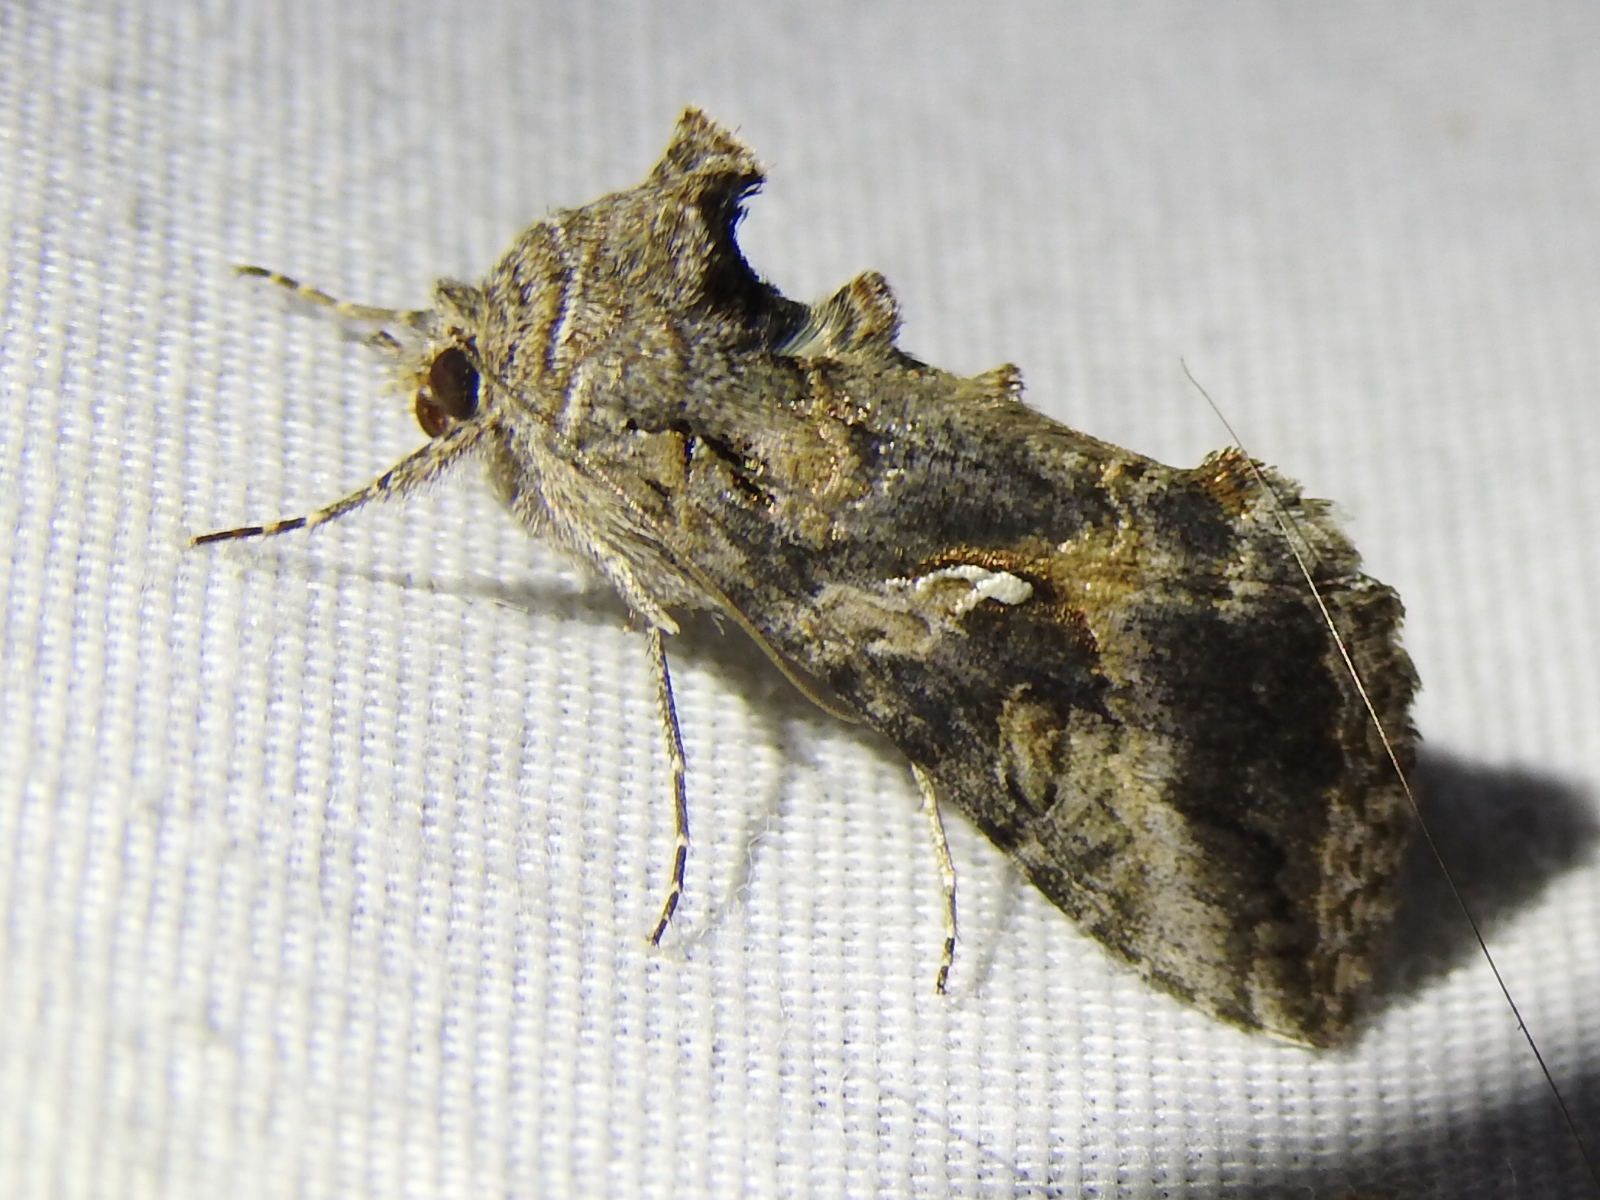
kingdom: Animalia
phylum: Arthropoda
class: Insecta
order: Lepidoptera
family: Noctuidae
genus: Rachiplusia
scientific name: Rachiplusia ou
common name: Gray looper moth
